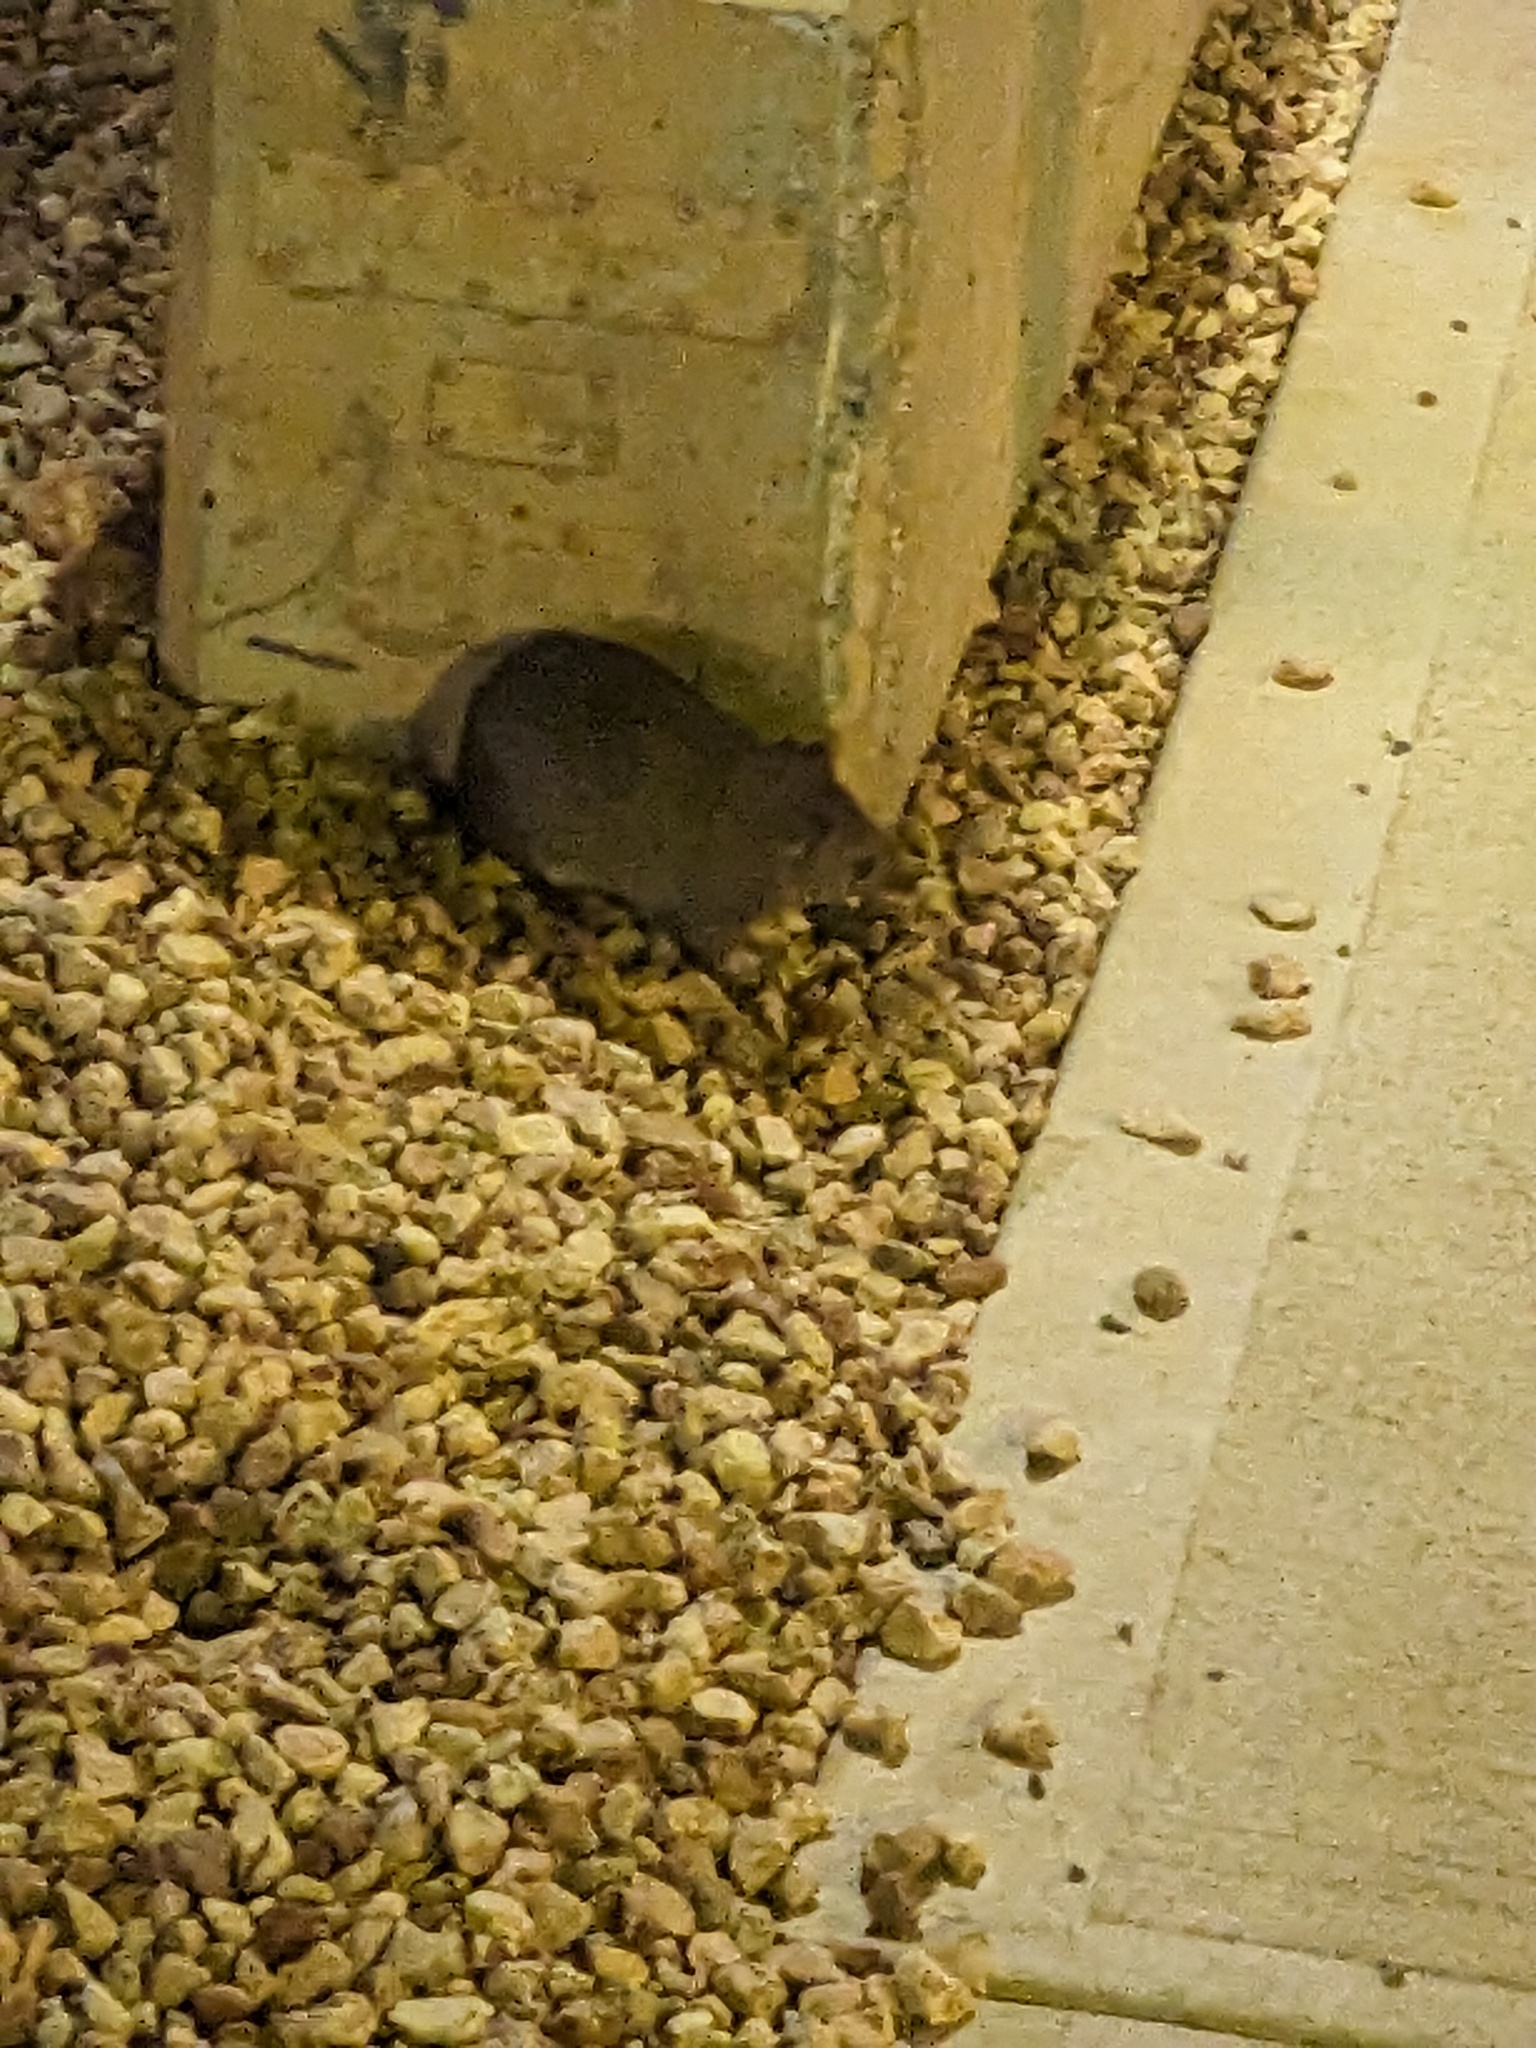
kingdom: Animalia
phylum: Chordata
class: Mammalia
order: Peramelemorphia
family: Peramelidae
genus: Isoodon
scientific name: Isoodon auratus
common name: Golden bandicoot
